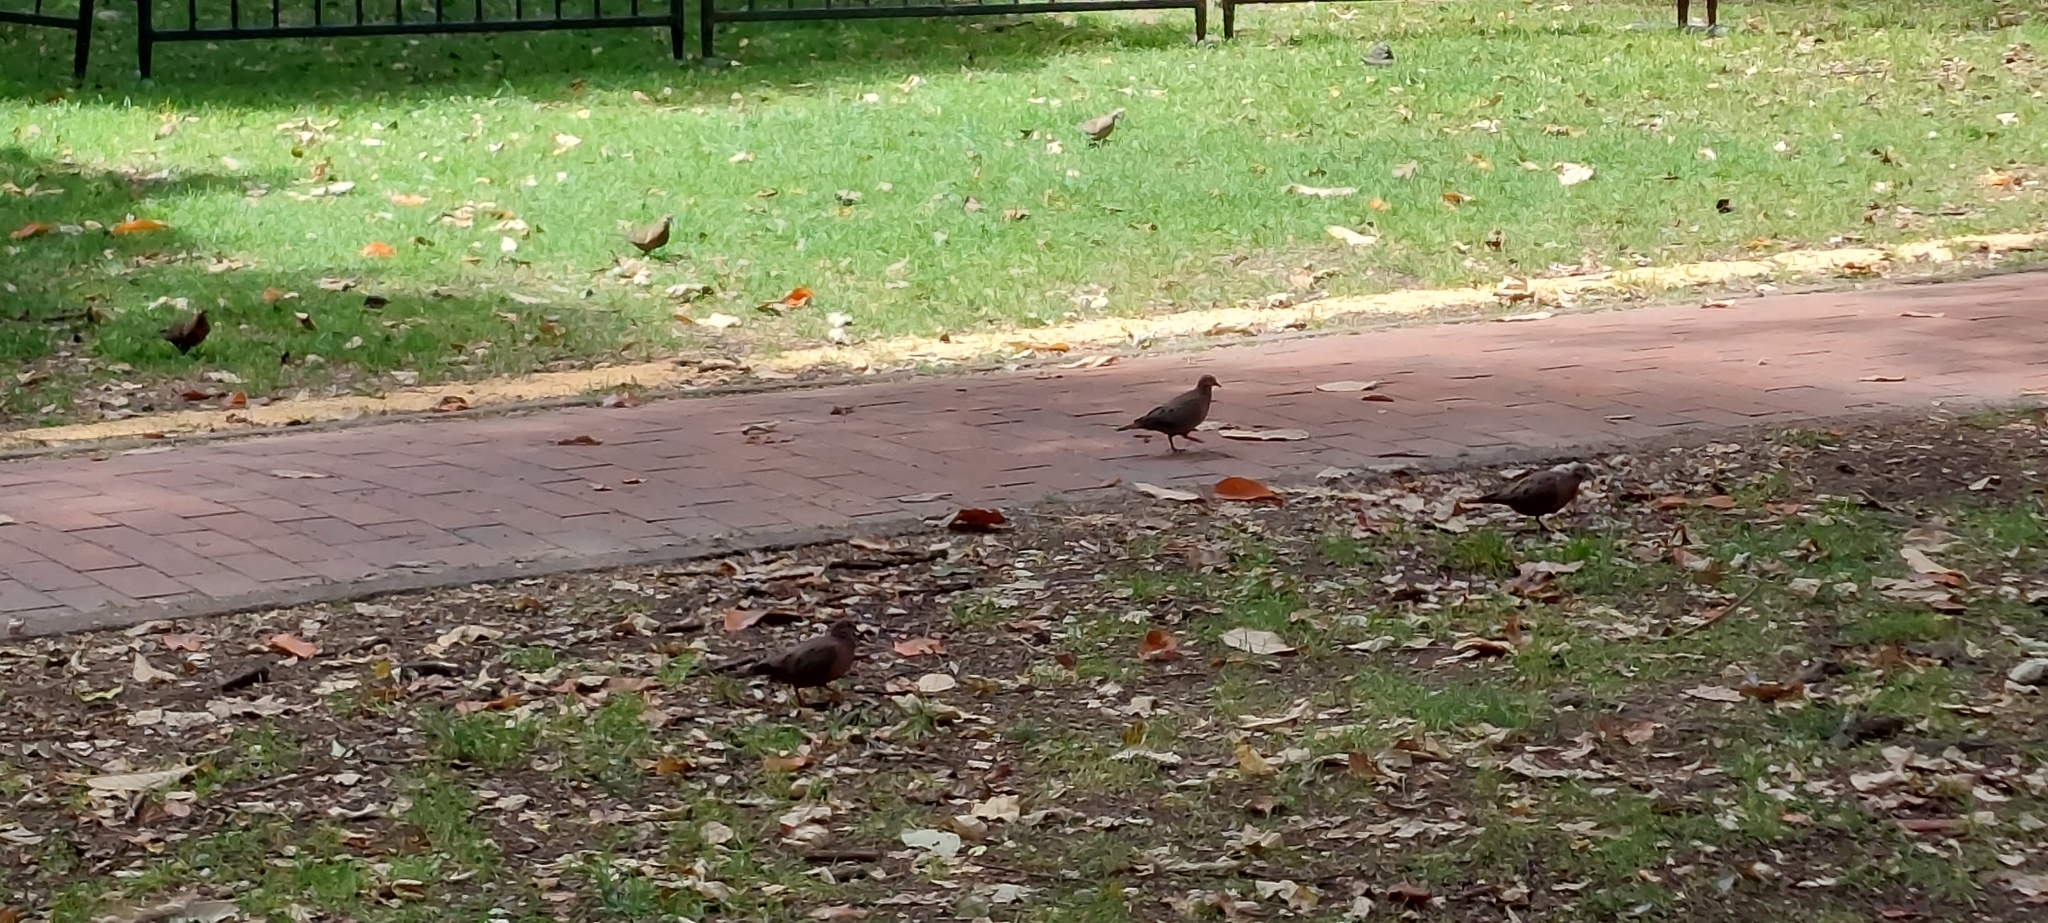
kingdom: Animalia
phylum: Chordata
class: Aves
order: Columbiformes
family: Columbidae
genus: Zenaida
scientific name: Zenaida auriculata
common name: Eared dove
